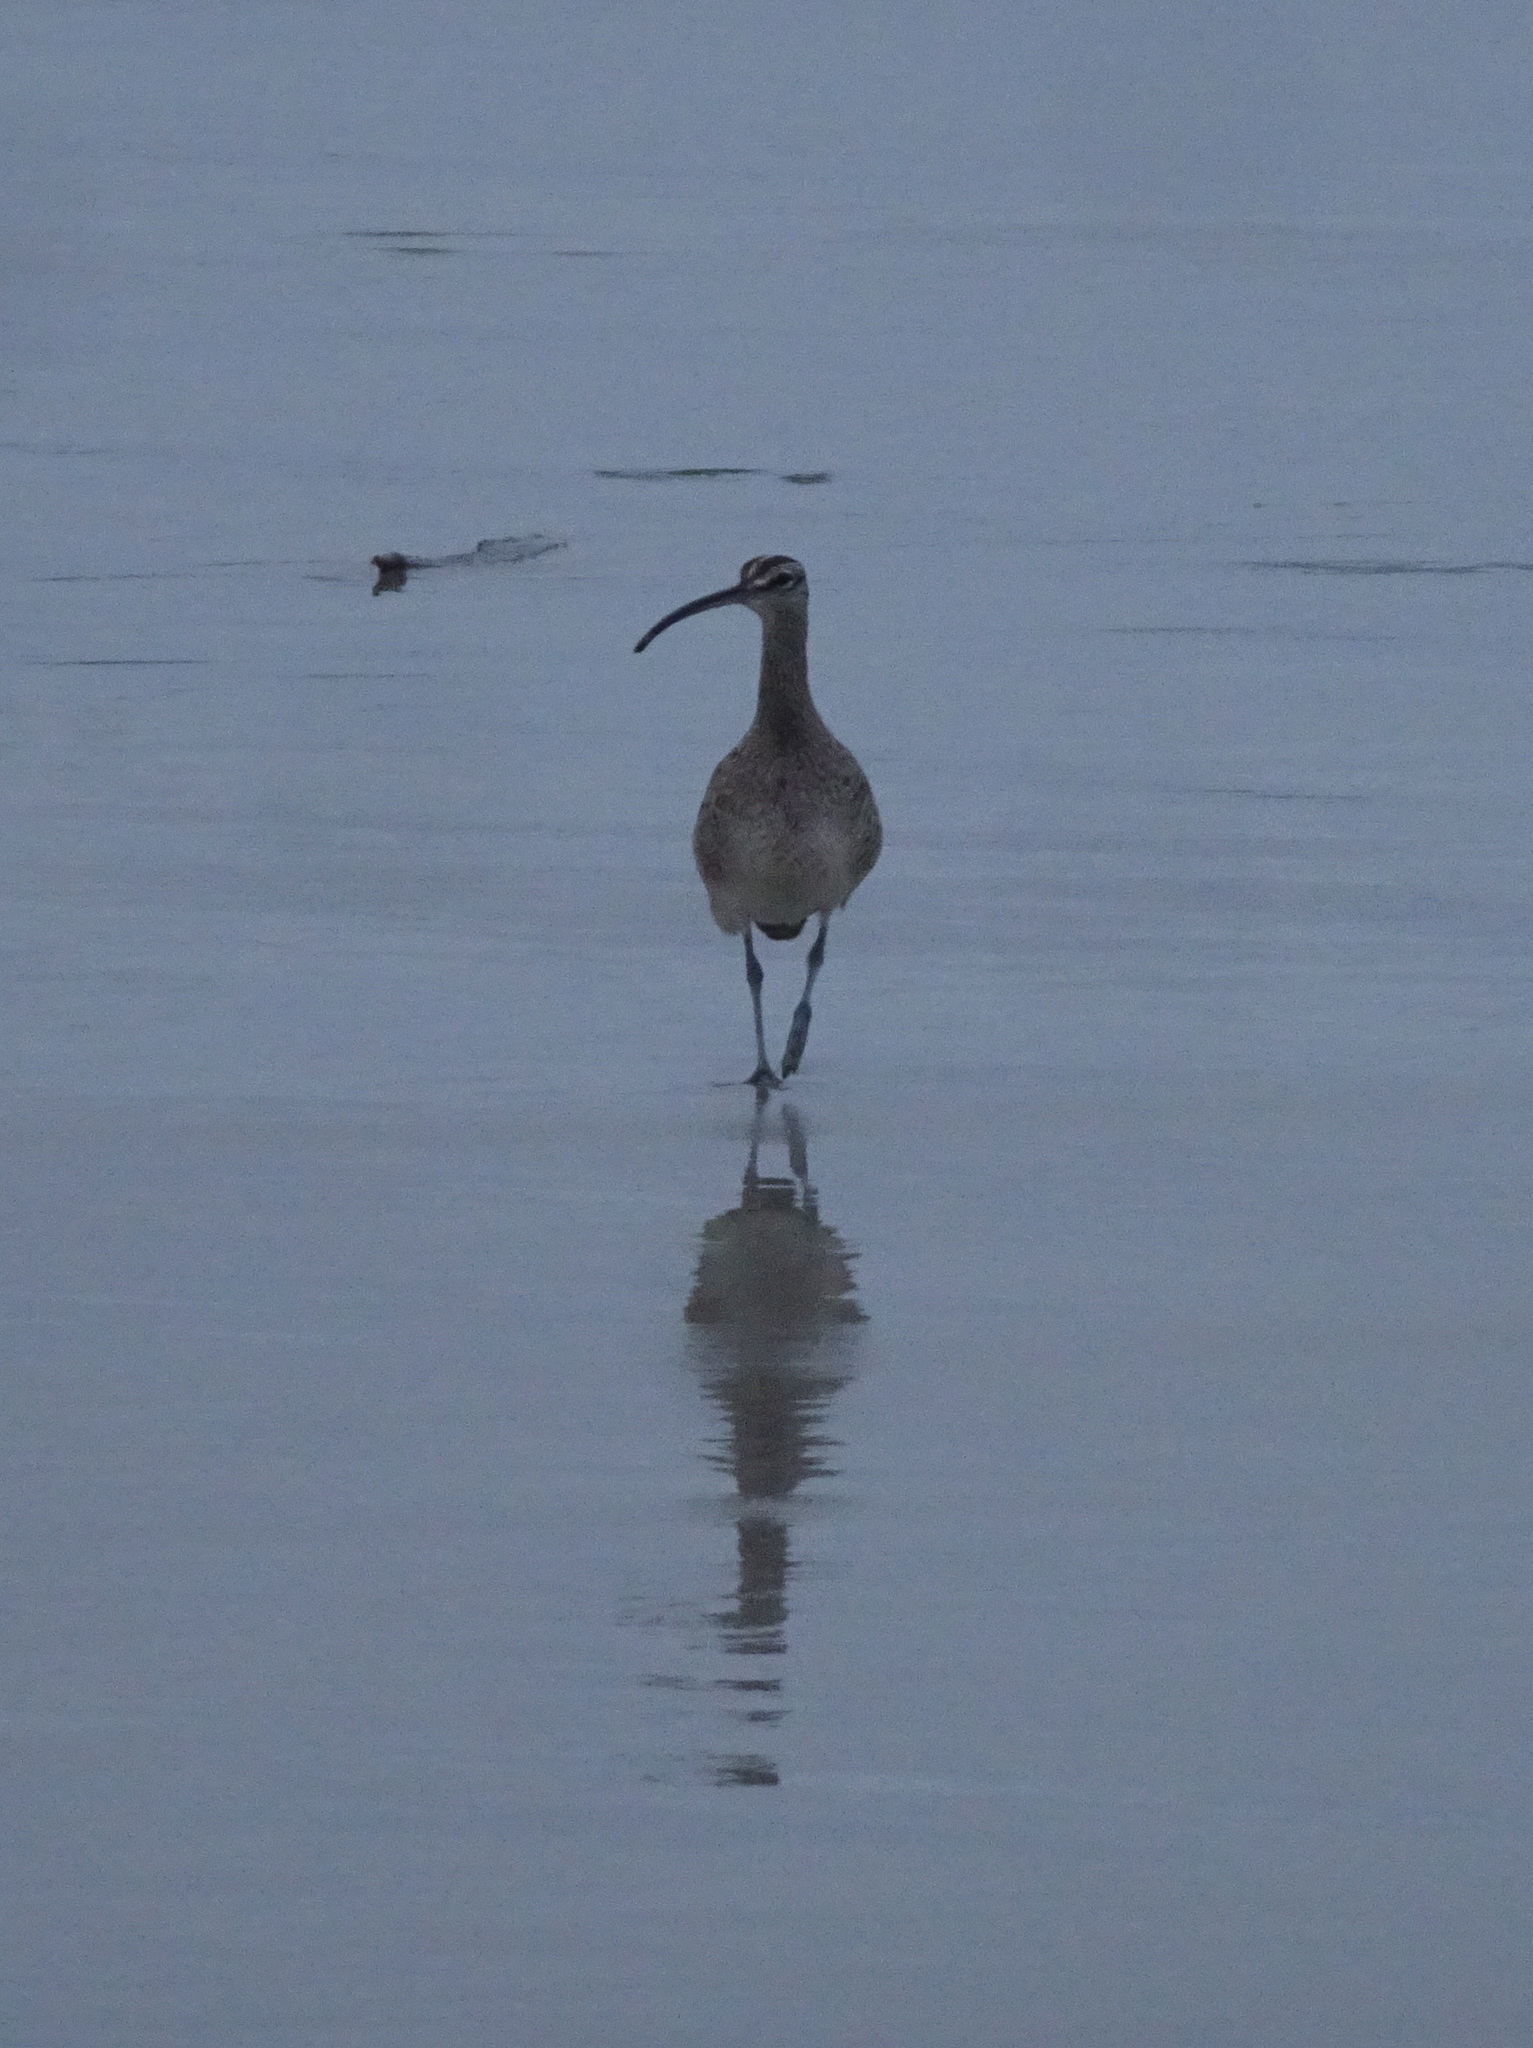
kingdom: Animalia
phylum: Chordata
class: Aves
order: Charadriiformes
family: Scolopacidae
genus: Numenius
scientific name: Numenius phaeopus
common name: Whimbrel
